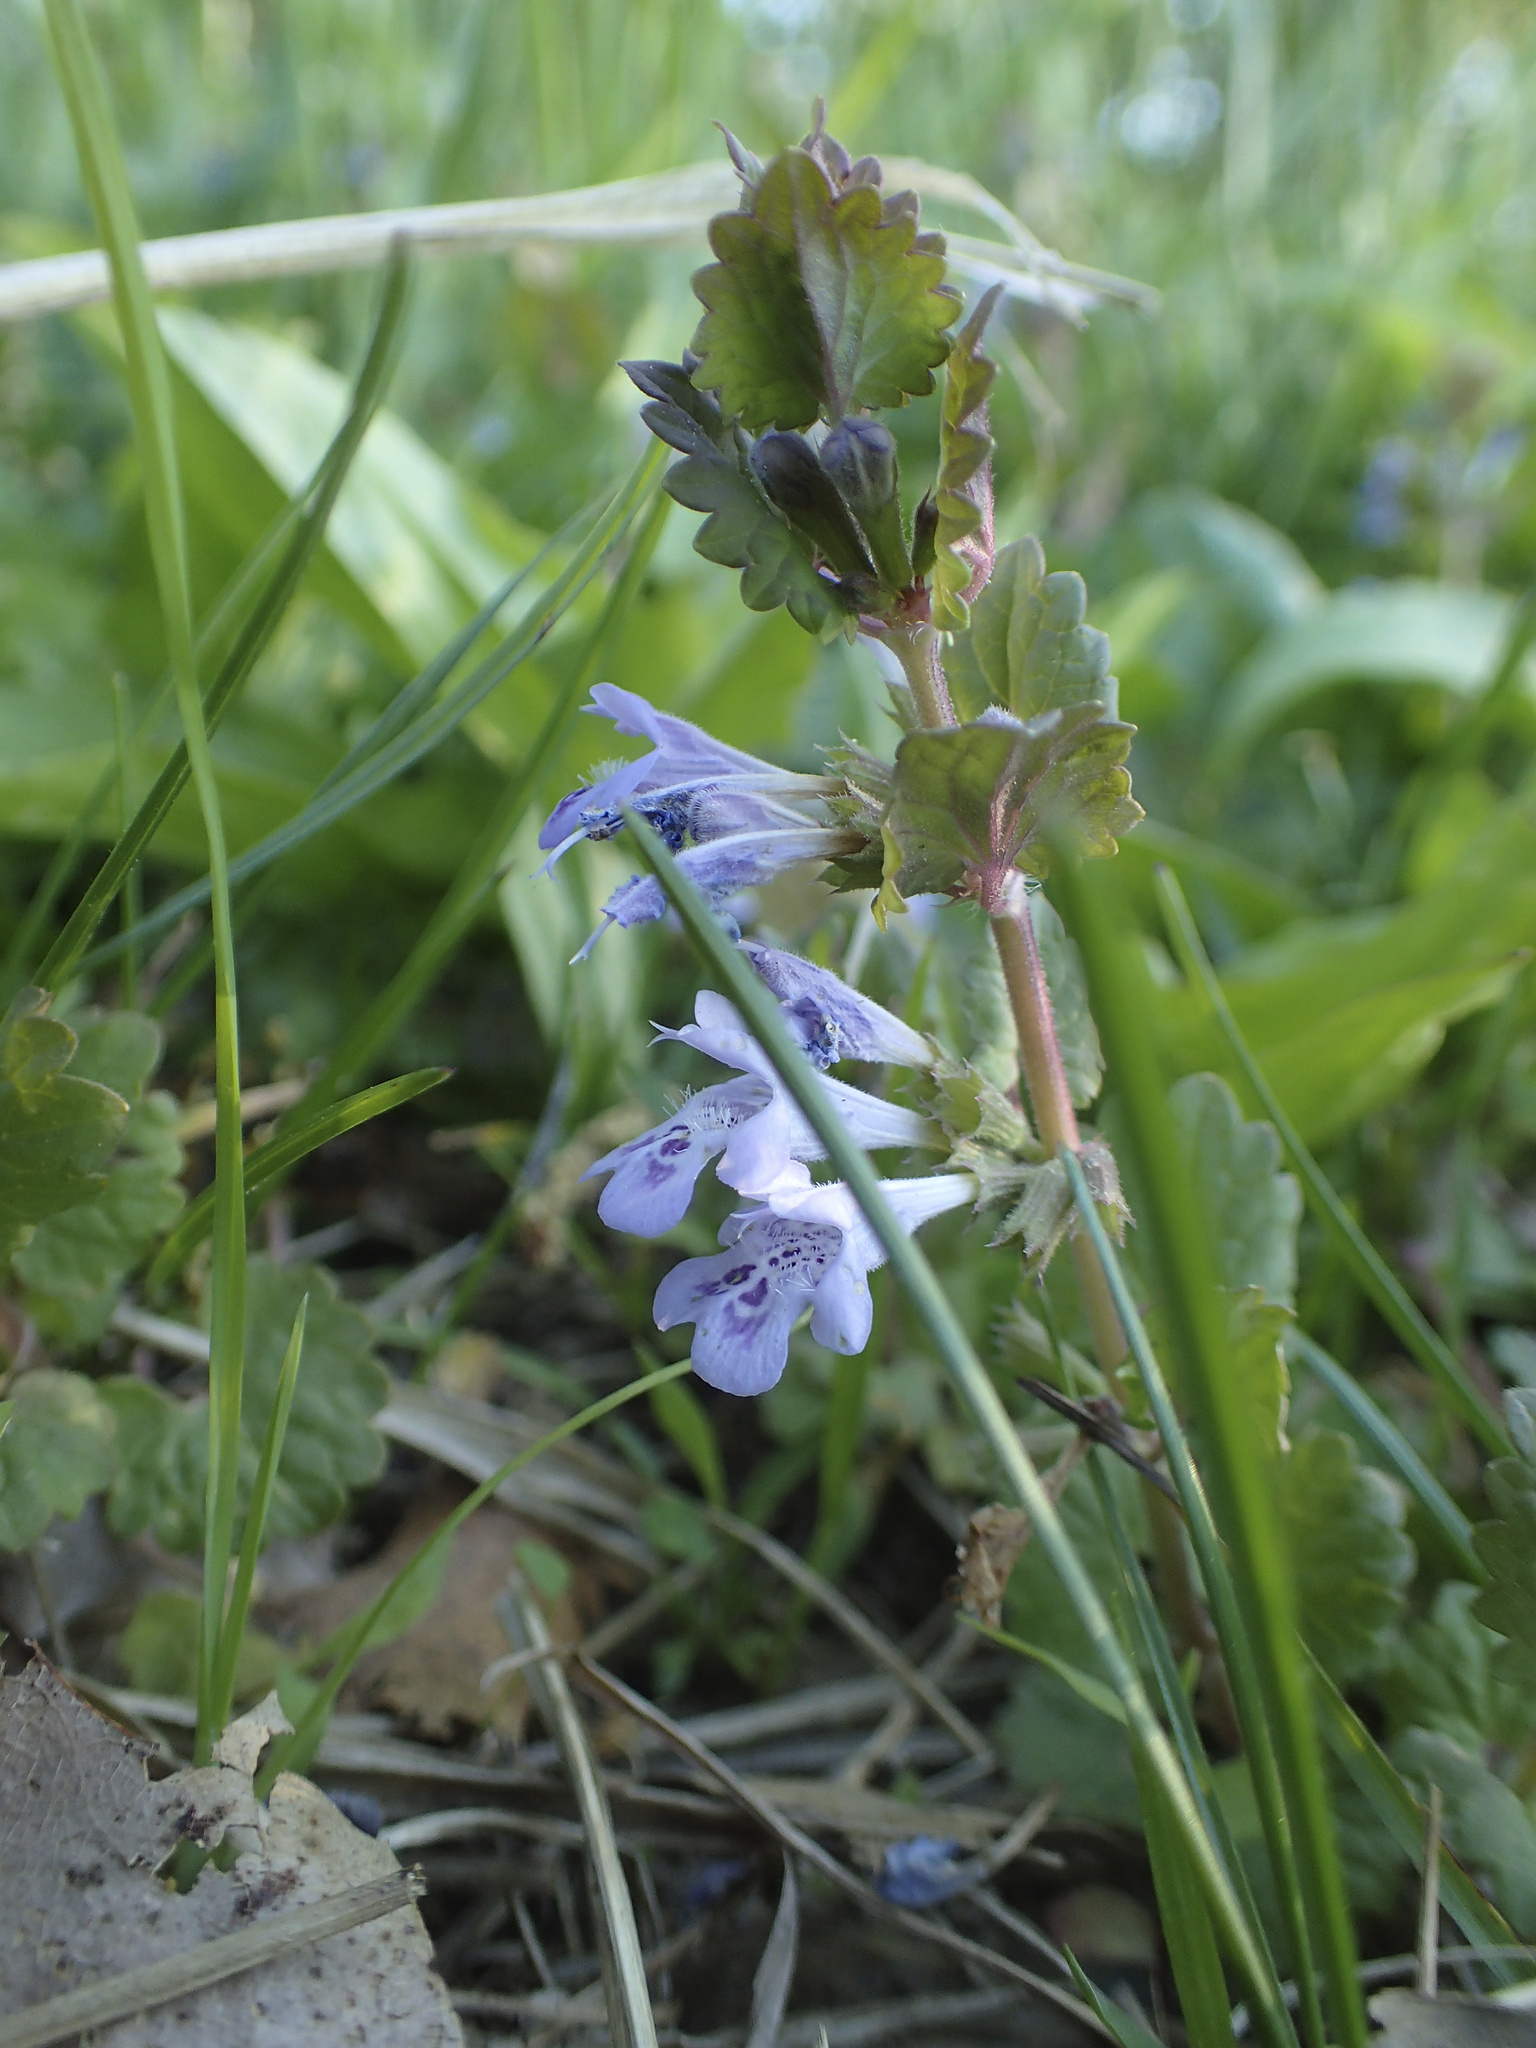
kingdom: Plantae
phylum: Tracheophyta
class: Magnoliopsida
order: Lamiales
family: Lamiaceae
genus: Glechoma
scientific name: Glechoma hederacea
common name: Ground ivy
